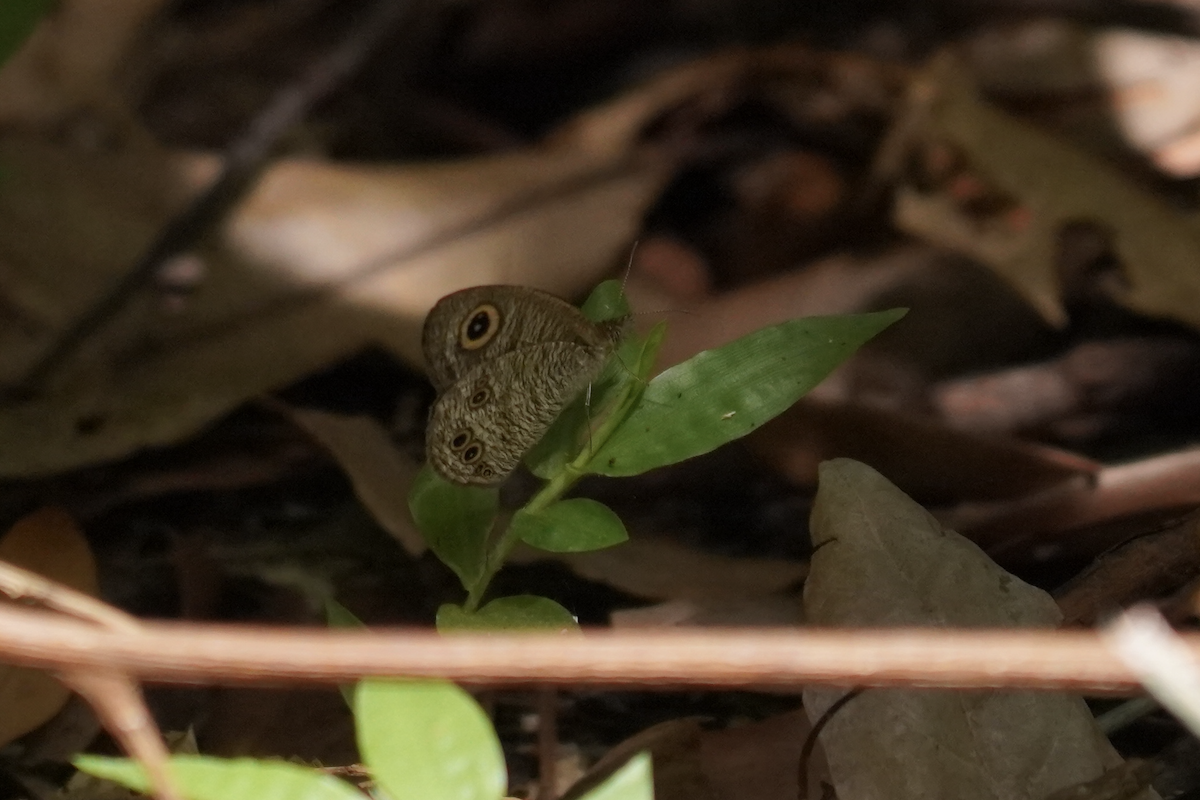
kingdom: Animalia
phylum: Arthropoda
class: Insecta
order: Lepidoptera
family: Nymphalidae
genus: Ypthima
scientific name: Ypthima lisandra
